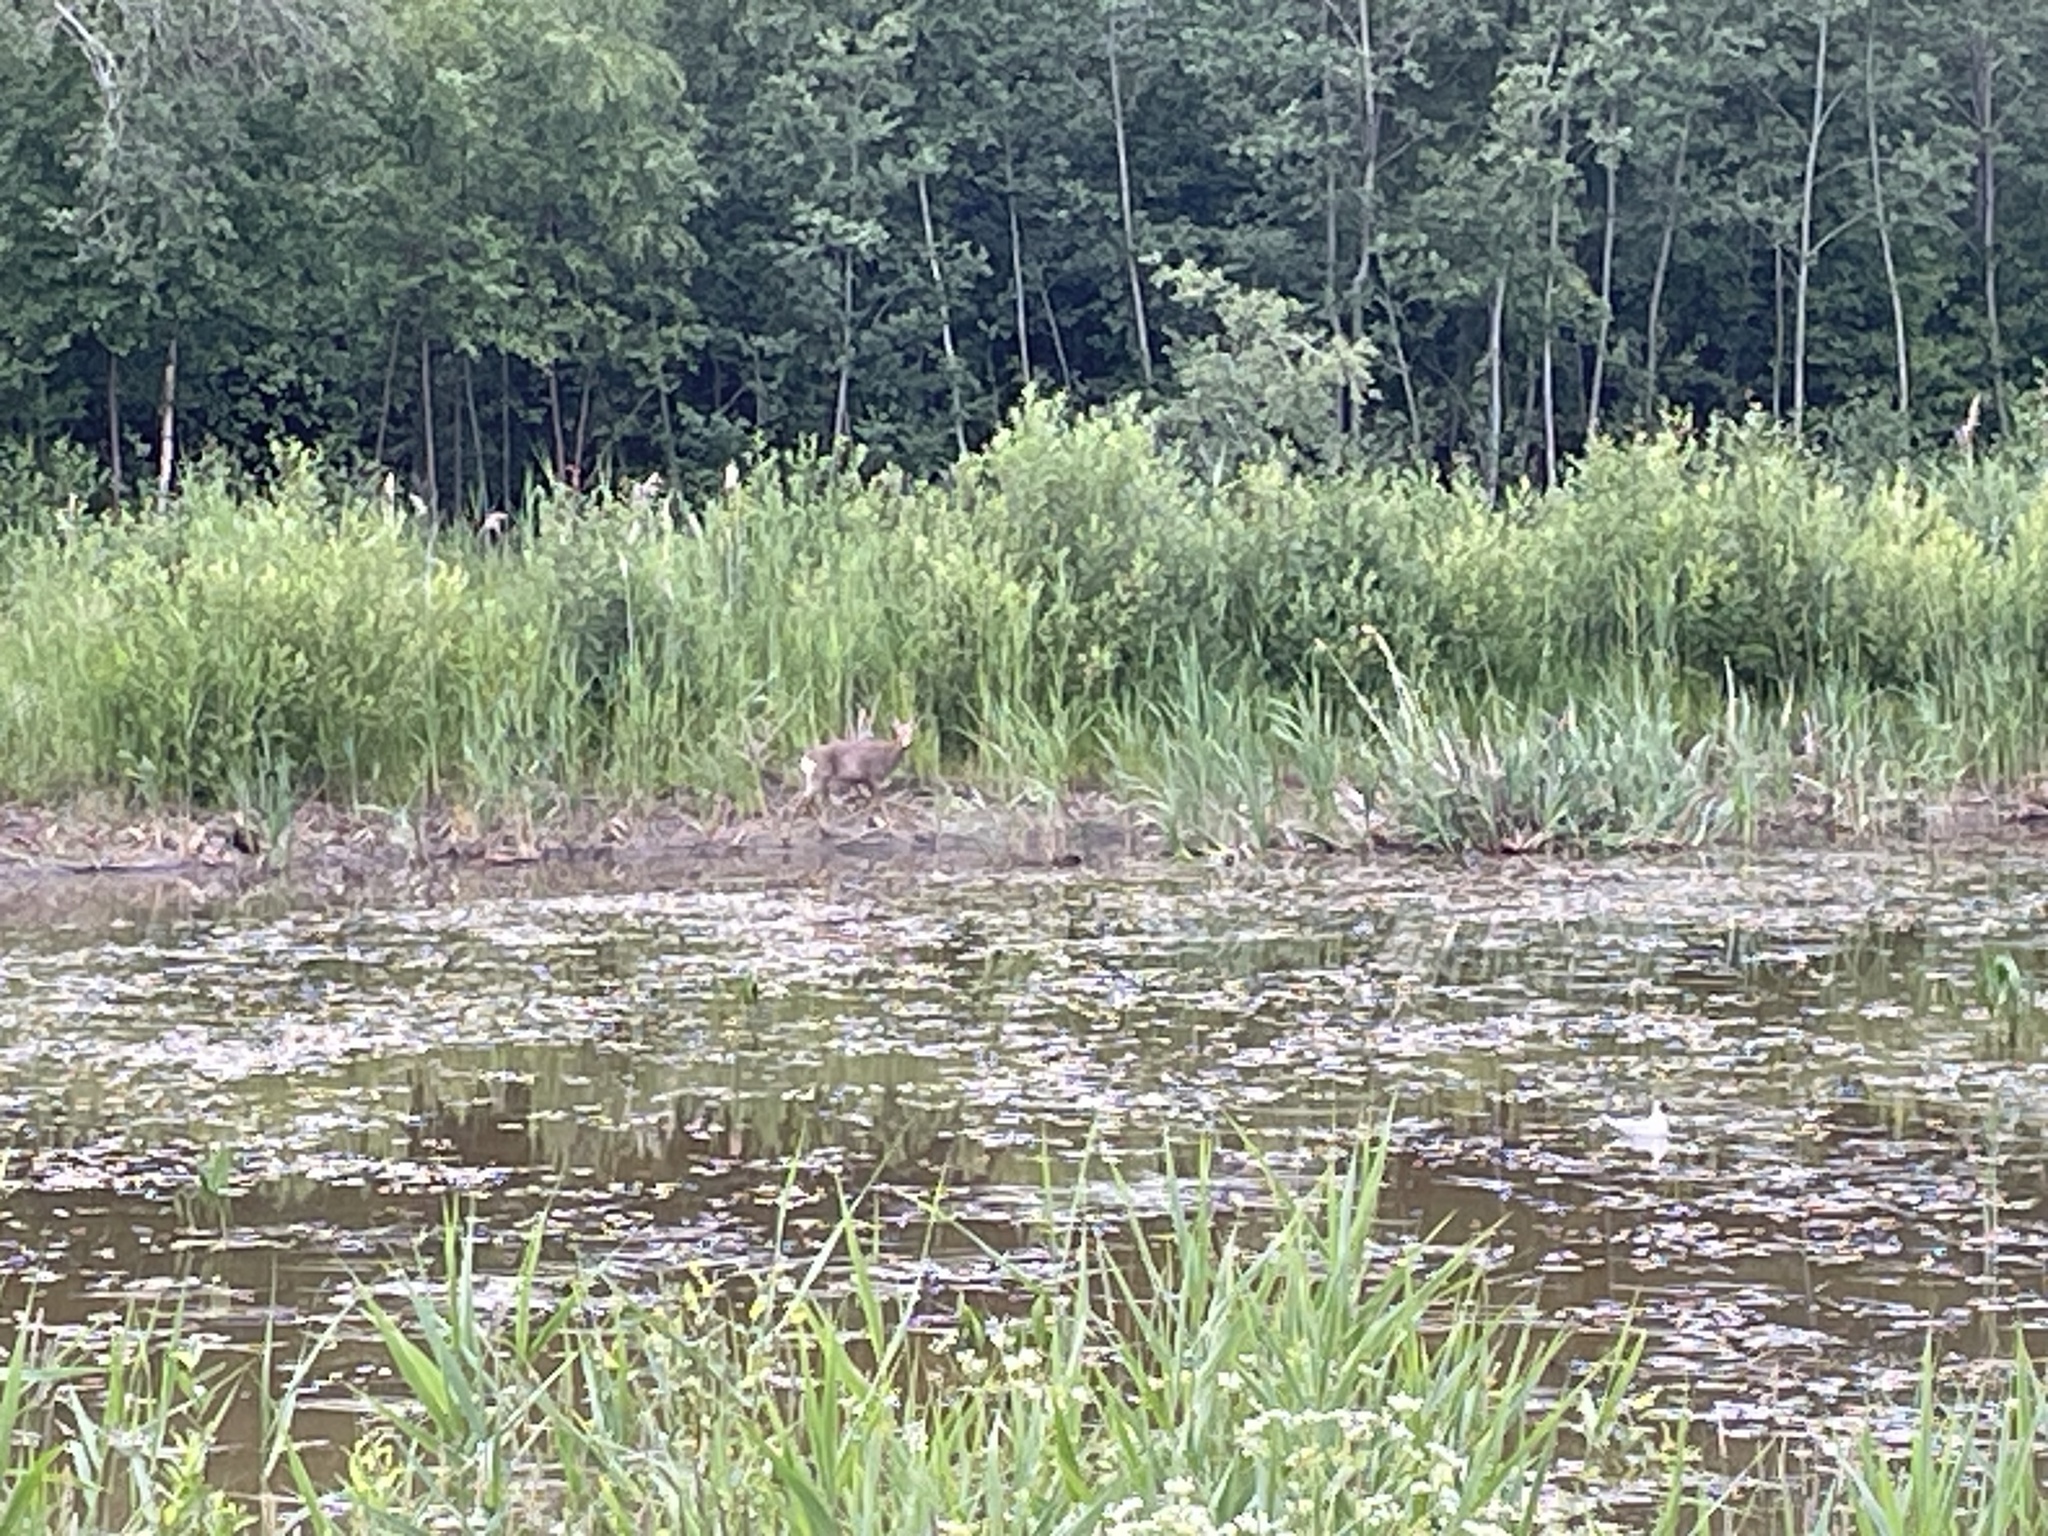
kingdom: Animalia
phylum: Chordata
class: Mammalia
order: Artiodactyla
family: Cervidae
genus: Capreolus
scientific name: Capreolus capreolus
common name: Western roe deer
